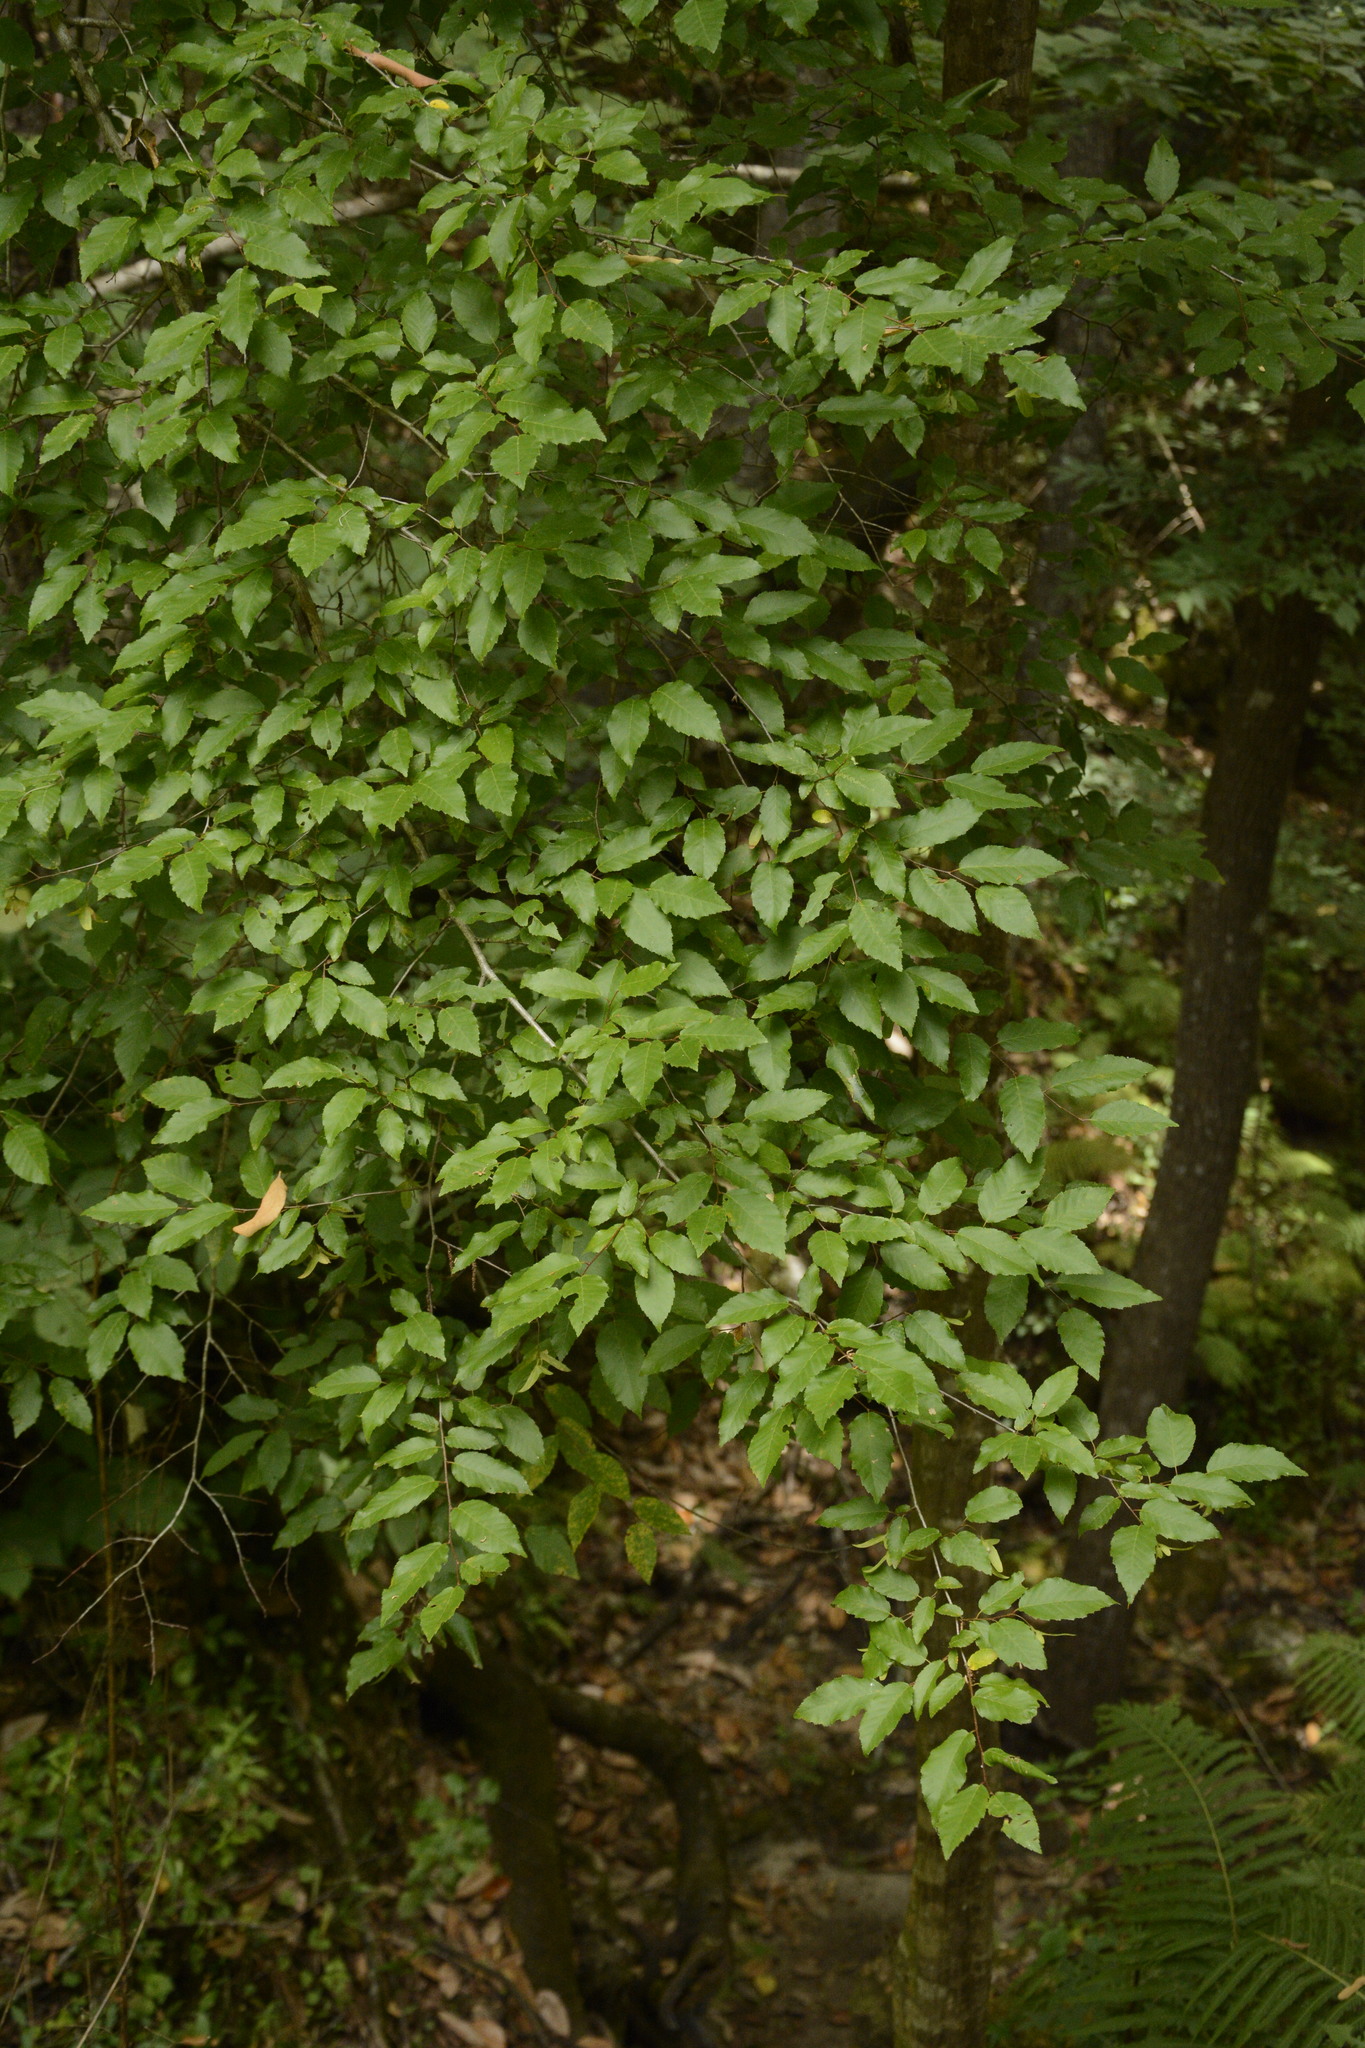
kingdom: Plantae
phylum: Tracheophyta
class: Magnoliopsida
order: Fagales
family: Betulaceae
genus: Carpinus
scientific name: Carpinus caroliniana
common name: American hornbeam
